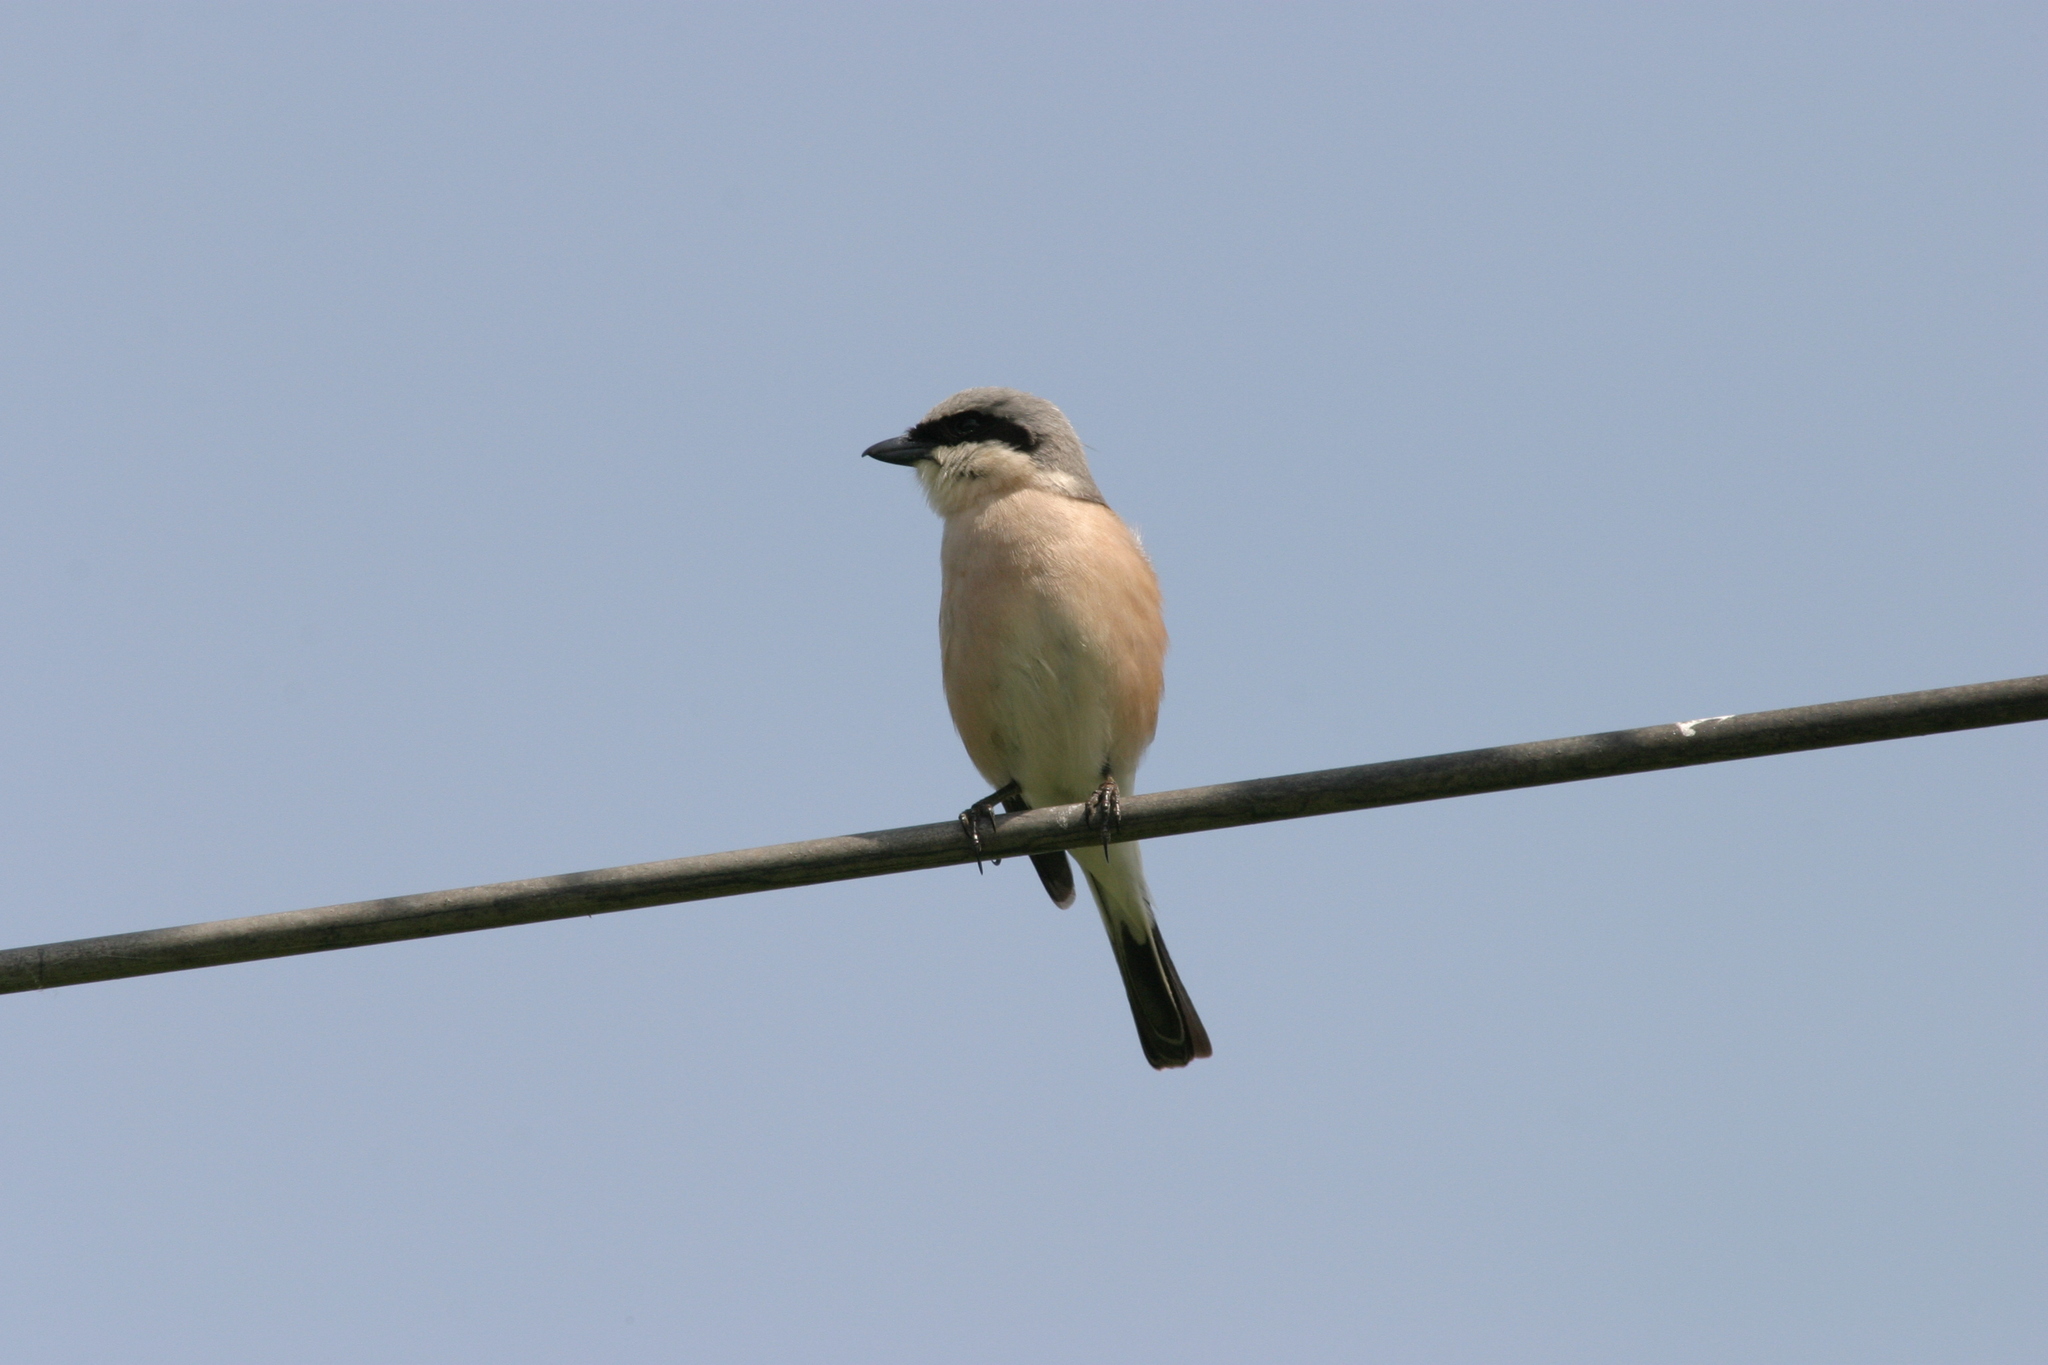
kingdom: Animalia
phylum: Chordata
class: Aves
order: Passeriformes
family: Laniidae
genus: Lanius
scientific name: Lanius collurio
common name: Red-backed shrike
